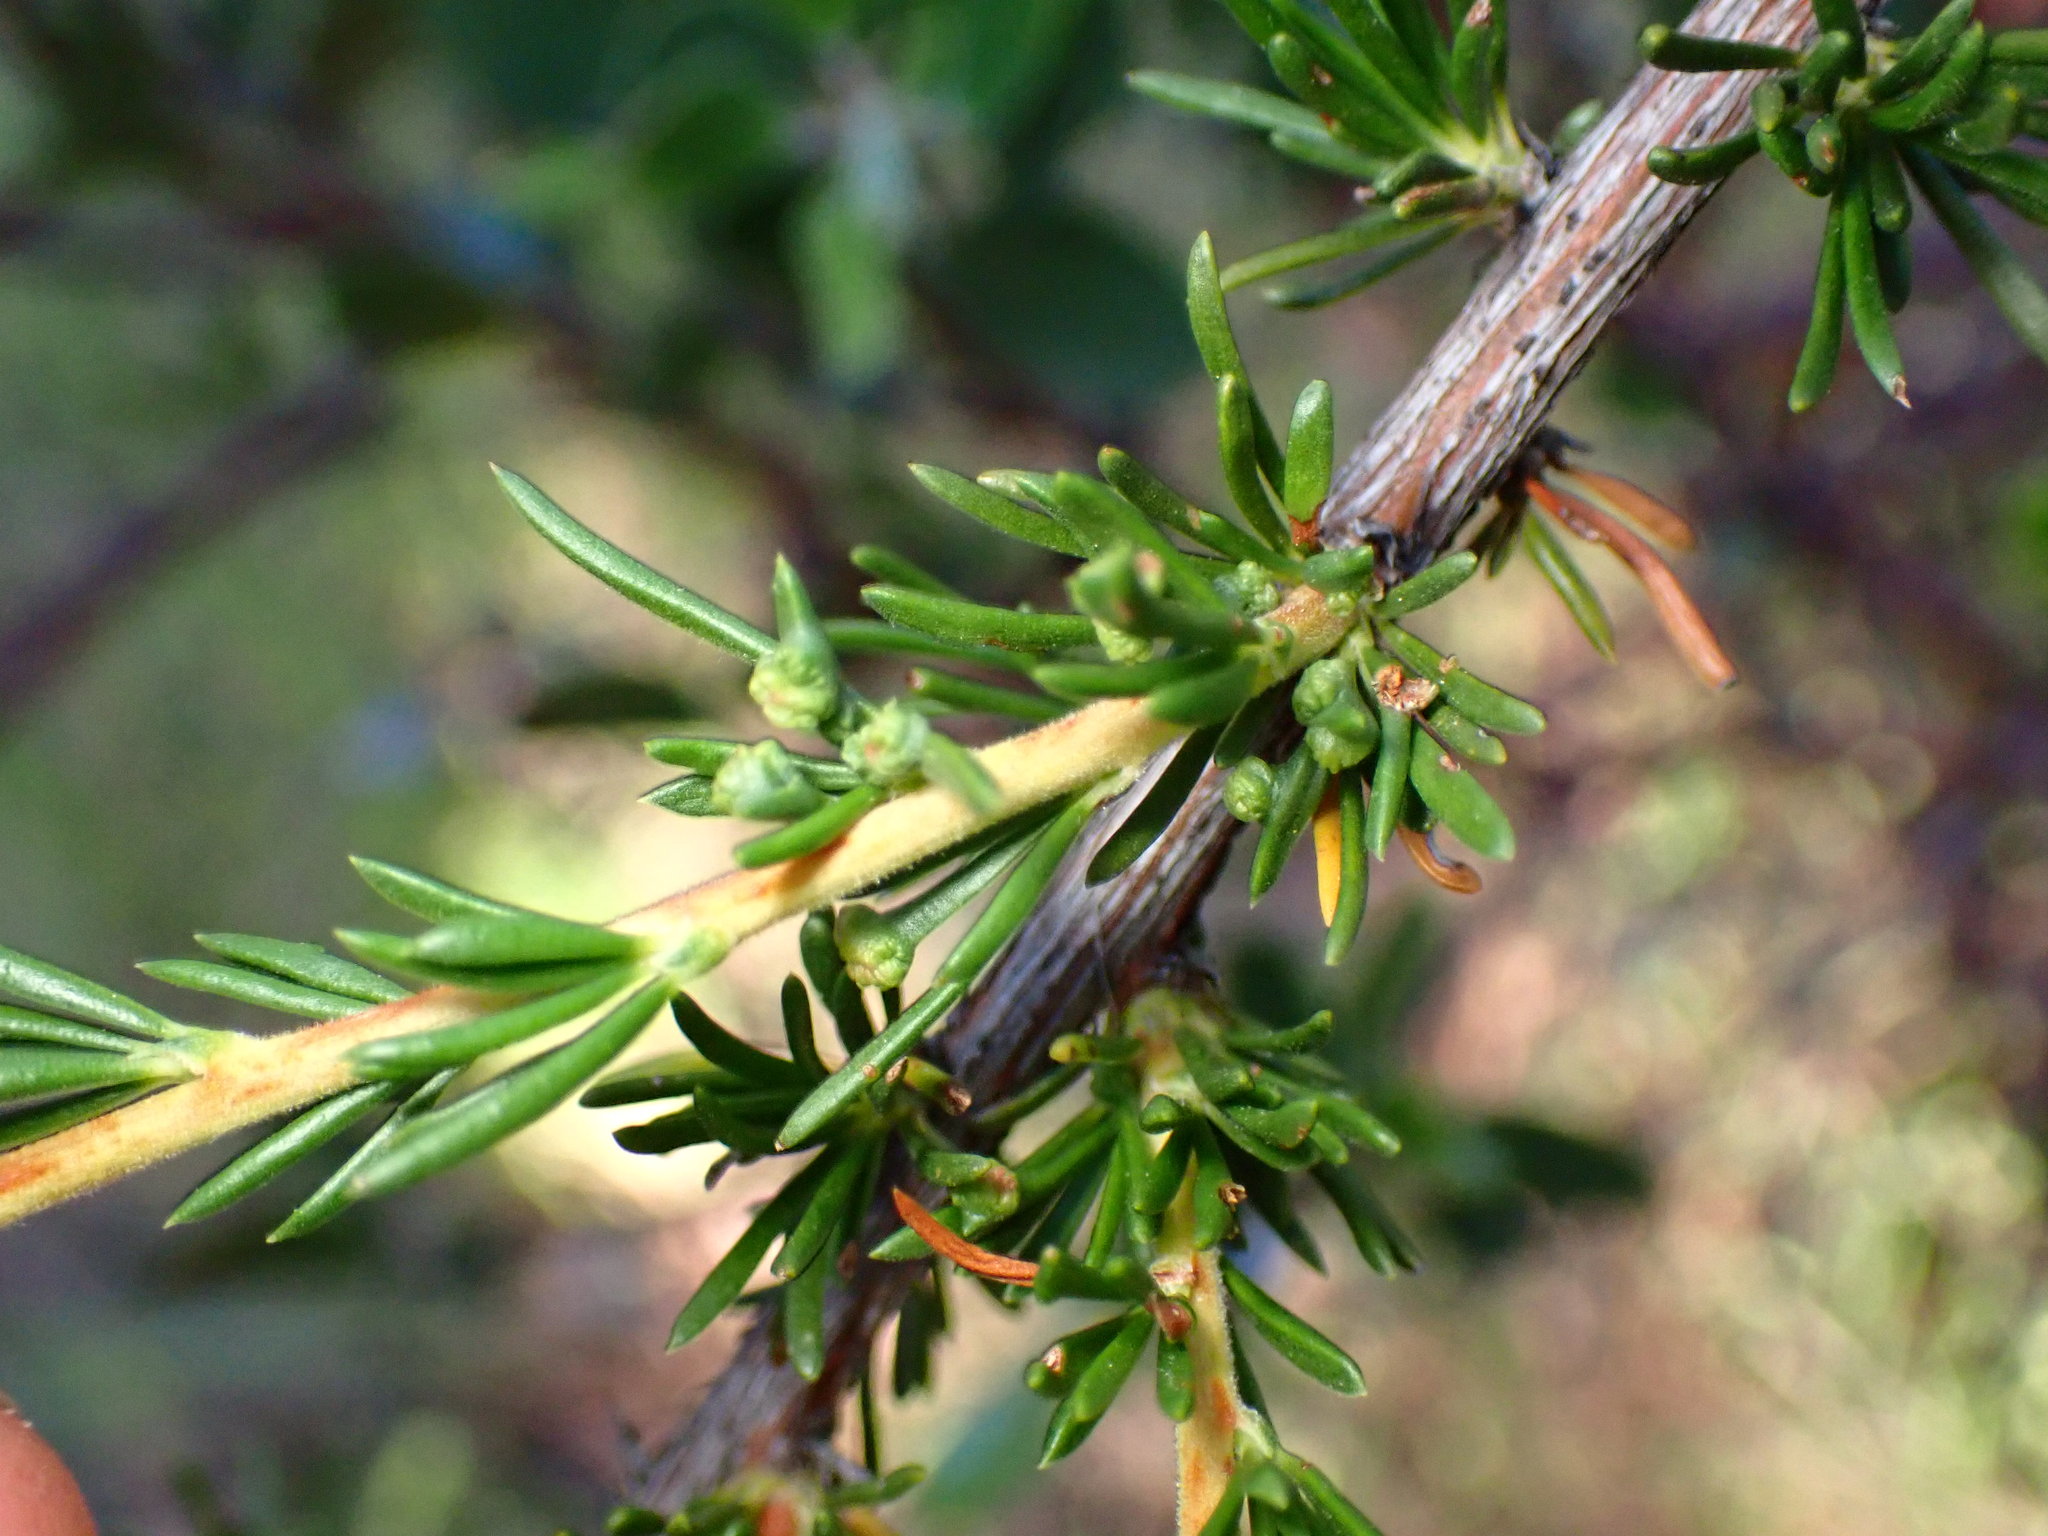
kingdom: Plantae
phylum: Tracheophyta
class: Magnoliopsida
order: Rosales
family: Rosaceae
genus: Adenostoma
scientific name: Adenostoma fasciculatum
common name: Chamise
